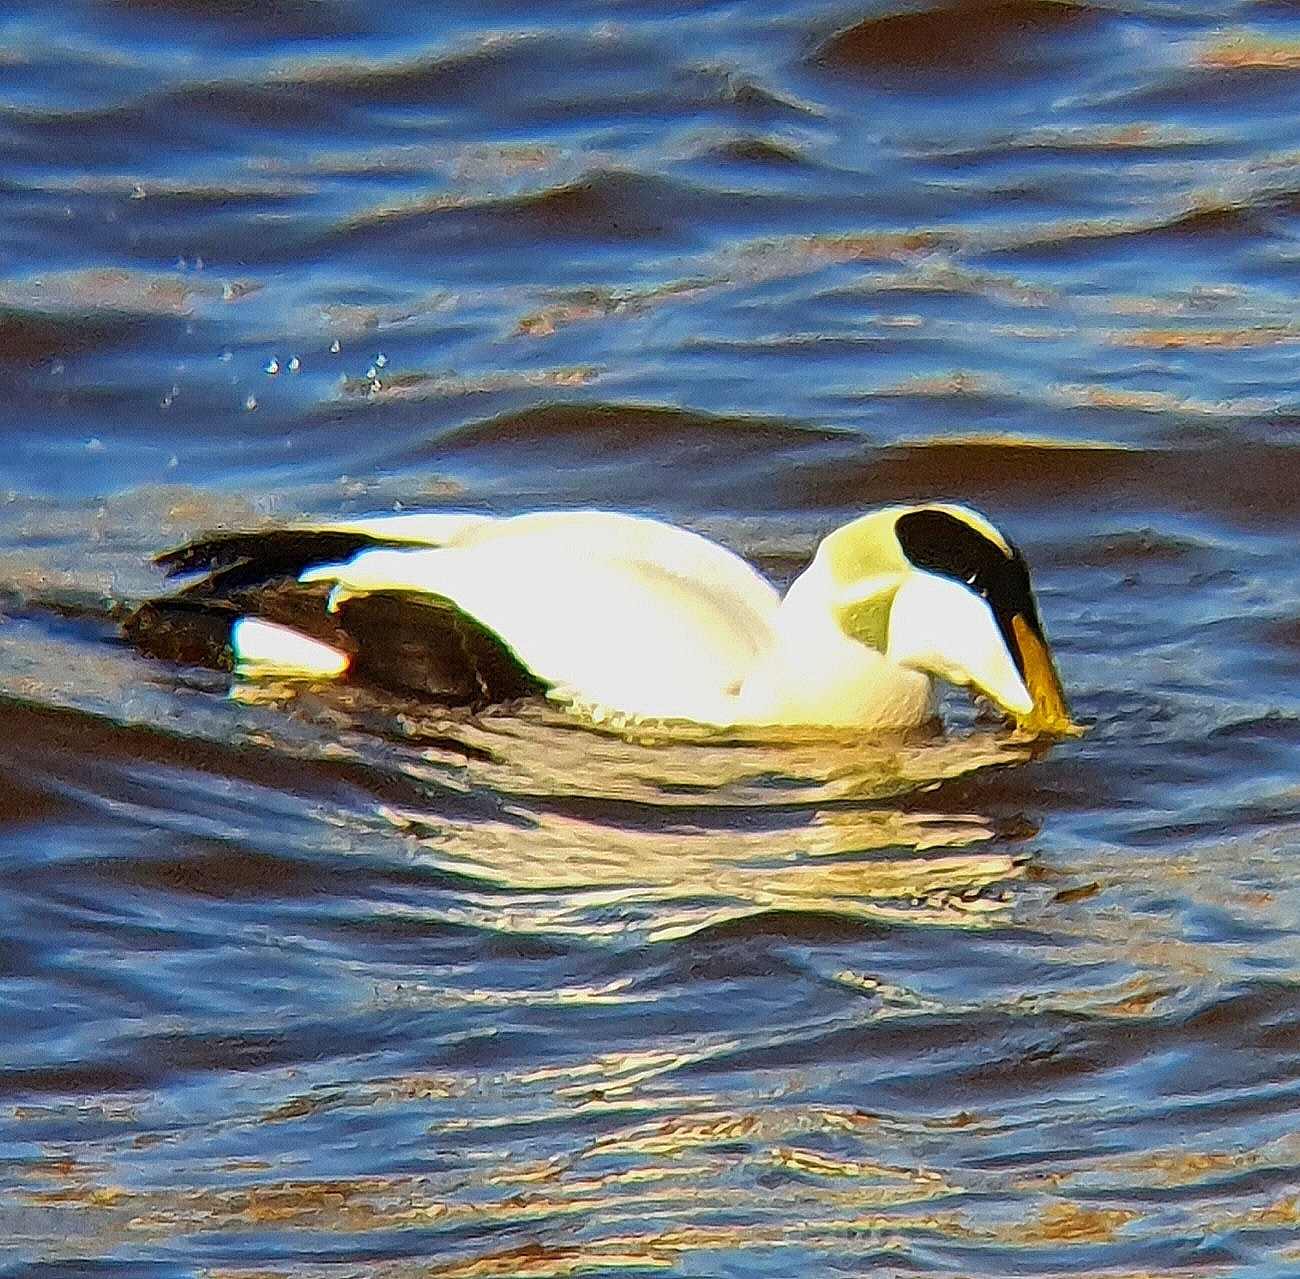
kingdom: Animalia
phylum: Chordata
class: Aves
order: Anseriformes
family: Anatidae
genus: Somateria
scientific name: Somateria mollissima
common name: Common eider
